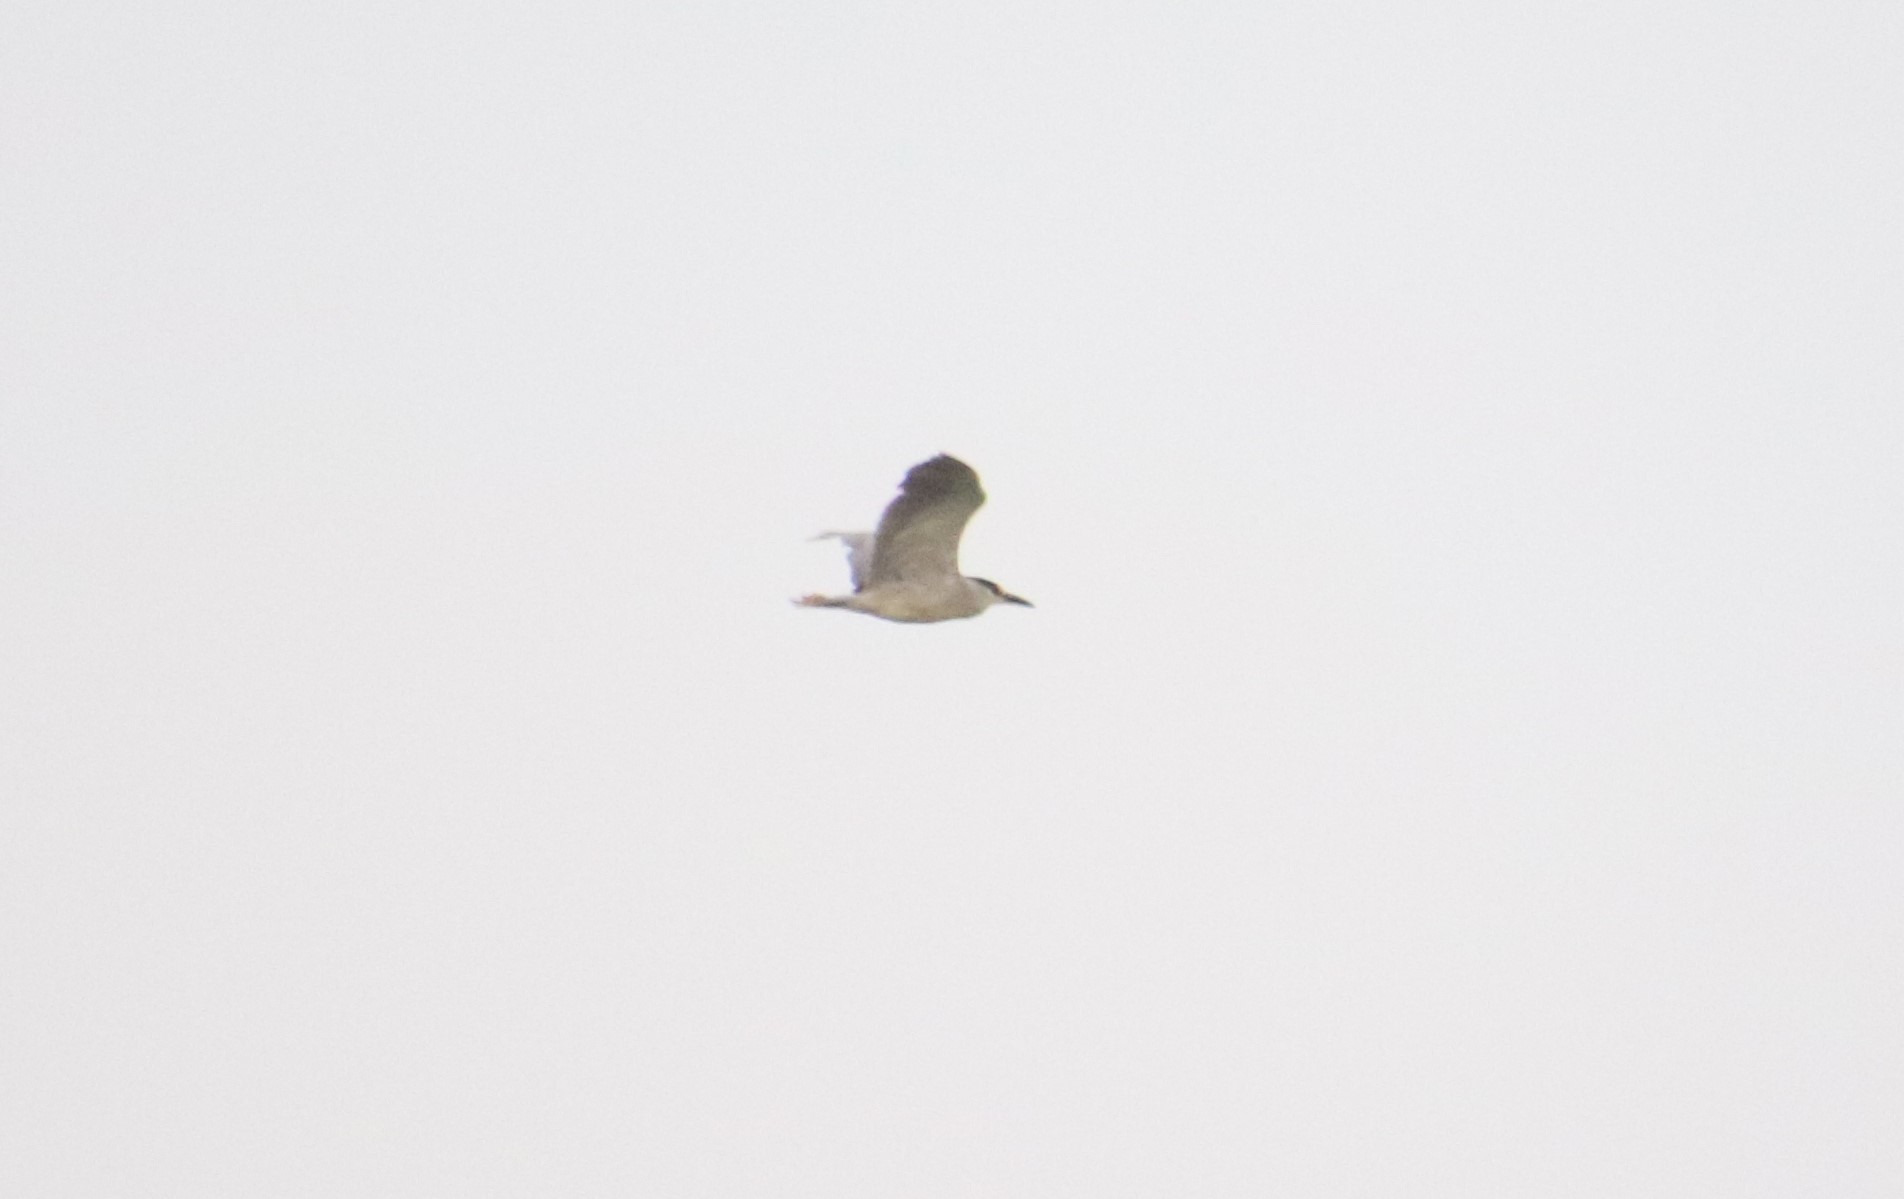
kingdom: Animalia
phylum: Chordata
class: Aves
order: Pelecaniformes
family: Ardeidae
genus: Nycticorax
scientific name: Nycticorax nycticorax
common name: Black-crowned night heron
